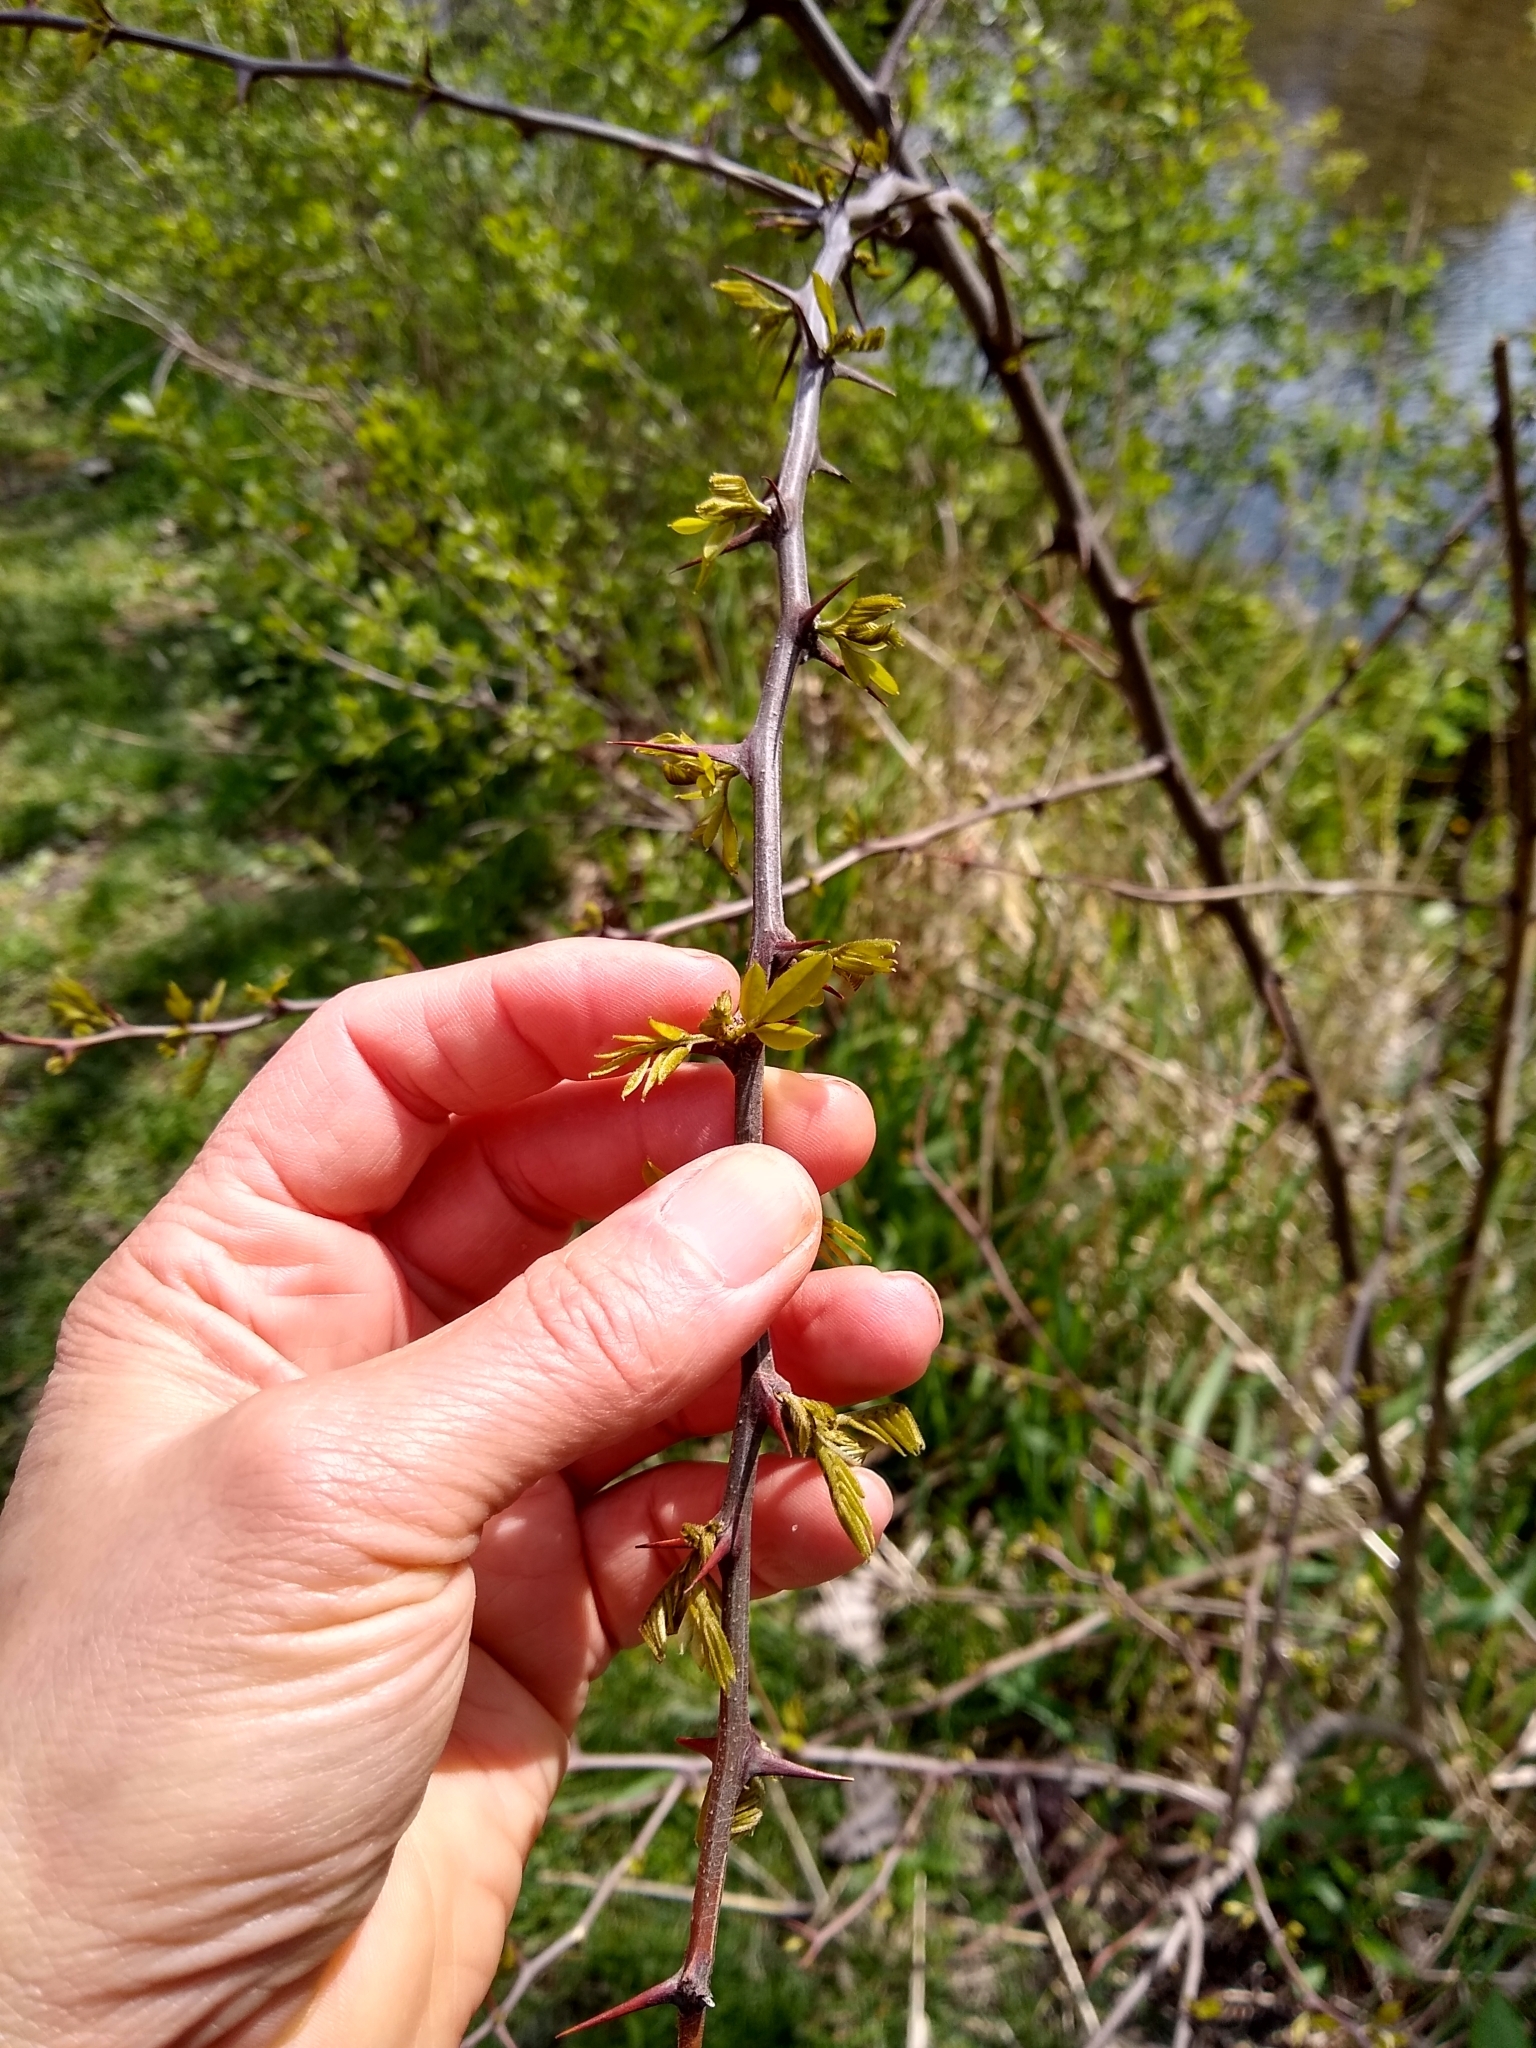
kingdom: Plantae
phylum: Tracheophyta
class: Magnoliopsida
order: Fabales
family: Fabaceae
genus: Robinia
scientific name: Robinia pseudoacacia
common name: Black locust
